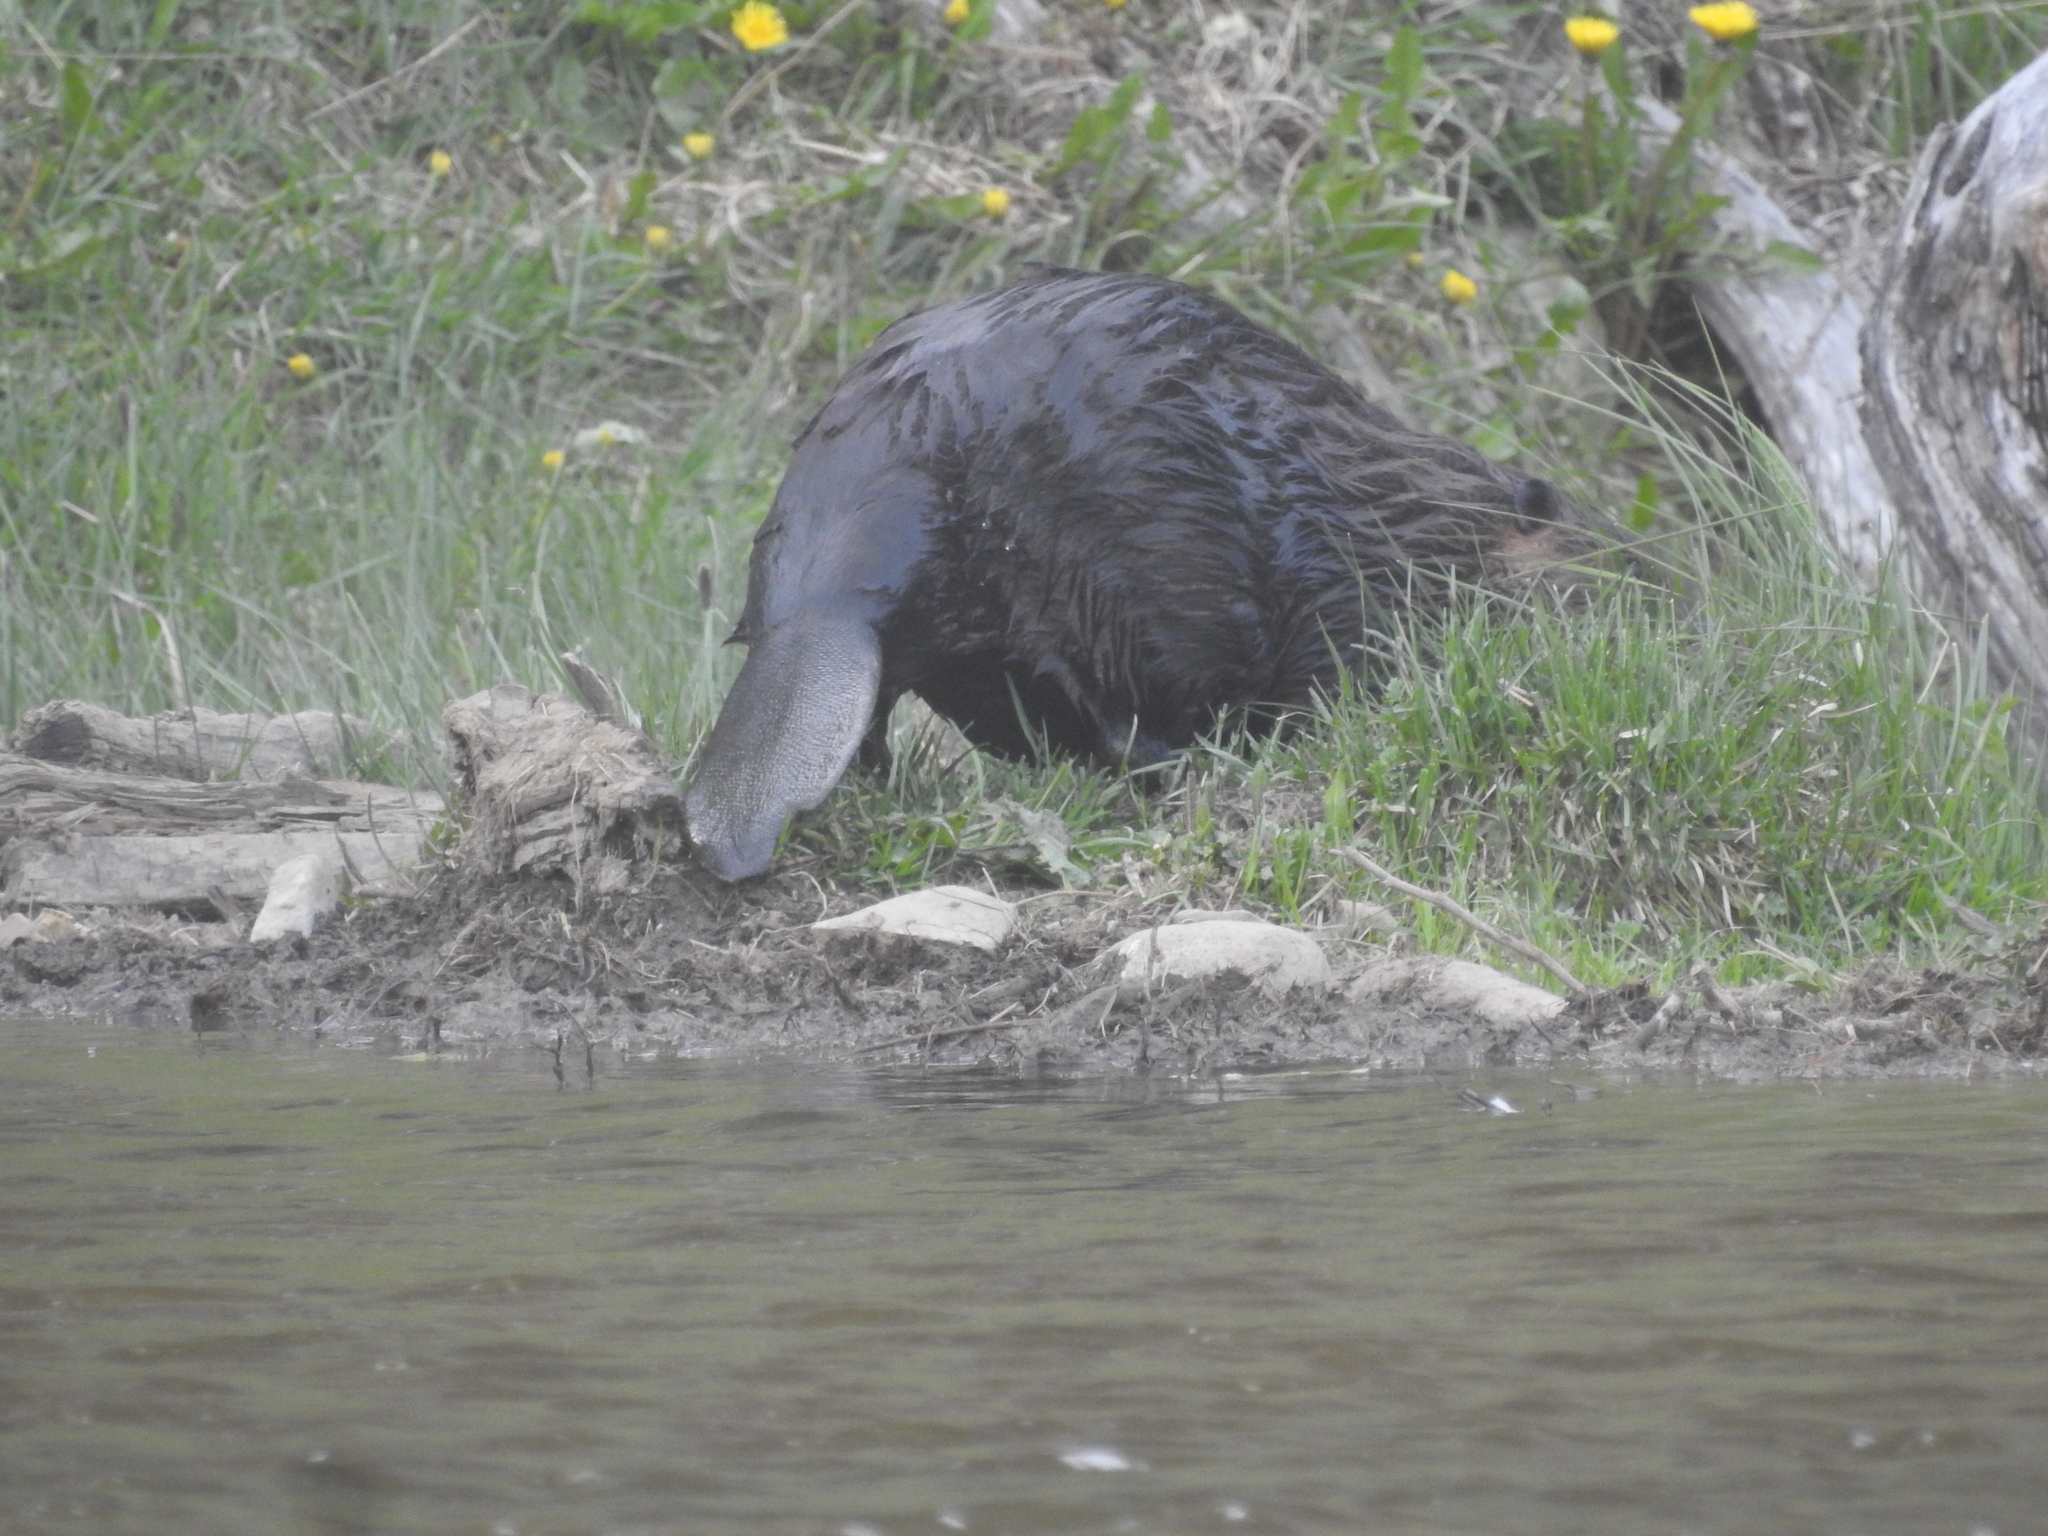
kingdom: Animalia
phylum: Chordata
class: Mammalia
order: Rodentia
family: Castoridae
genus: Castor
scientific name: Castor canadensis
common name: American beaver
